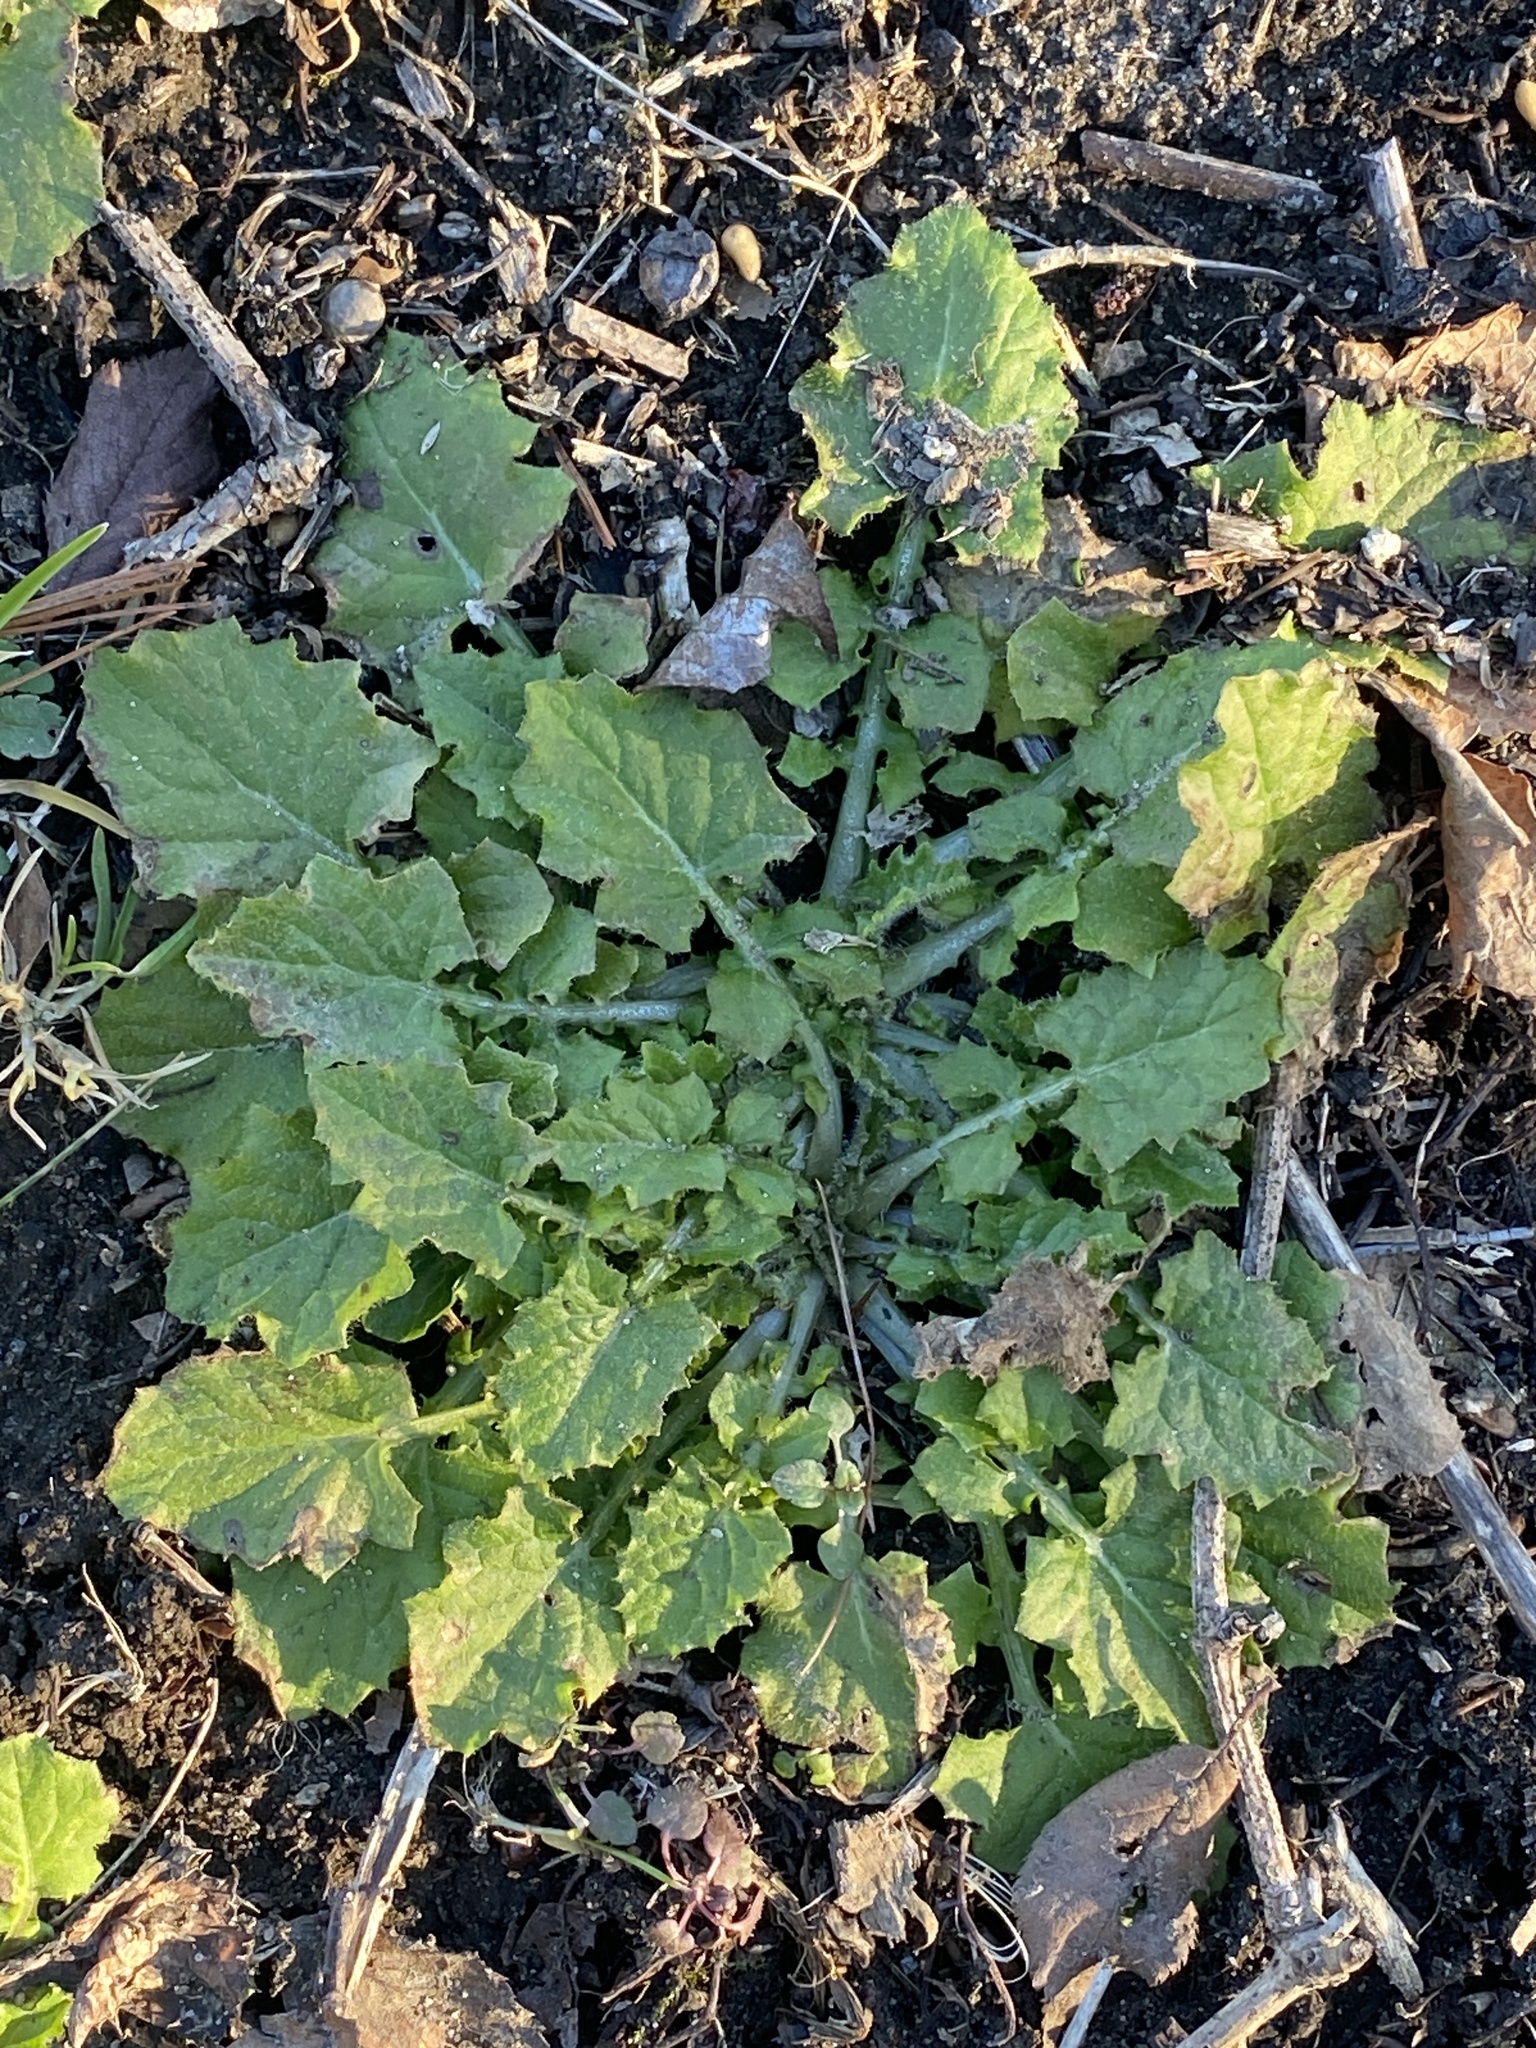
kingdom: Plantae
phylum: Tracheophyta
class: Magnoliopsida
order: Asterales
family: Asteraceae
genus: Lapsana
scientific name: Lapsana communis
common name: Nipplewort
